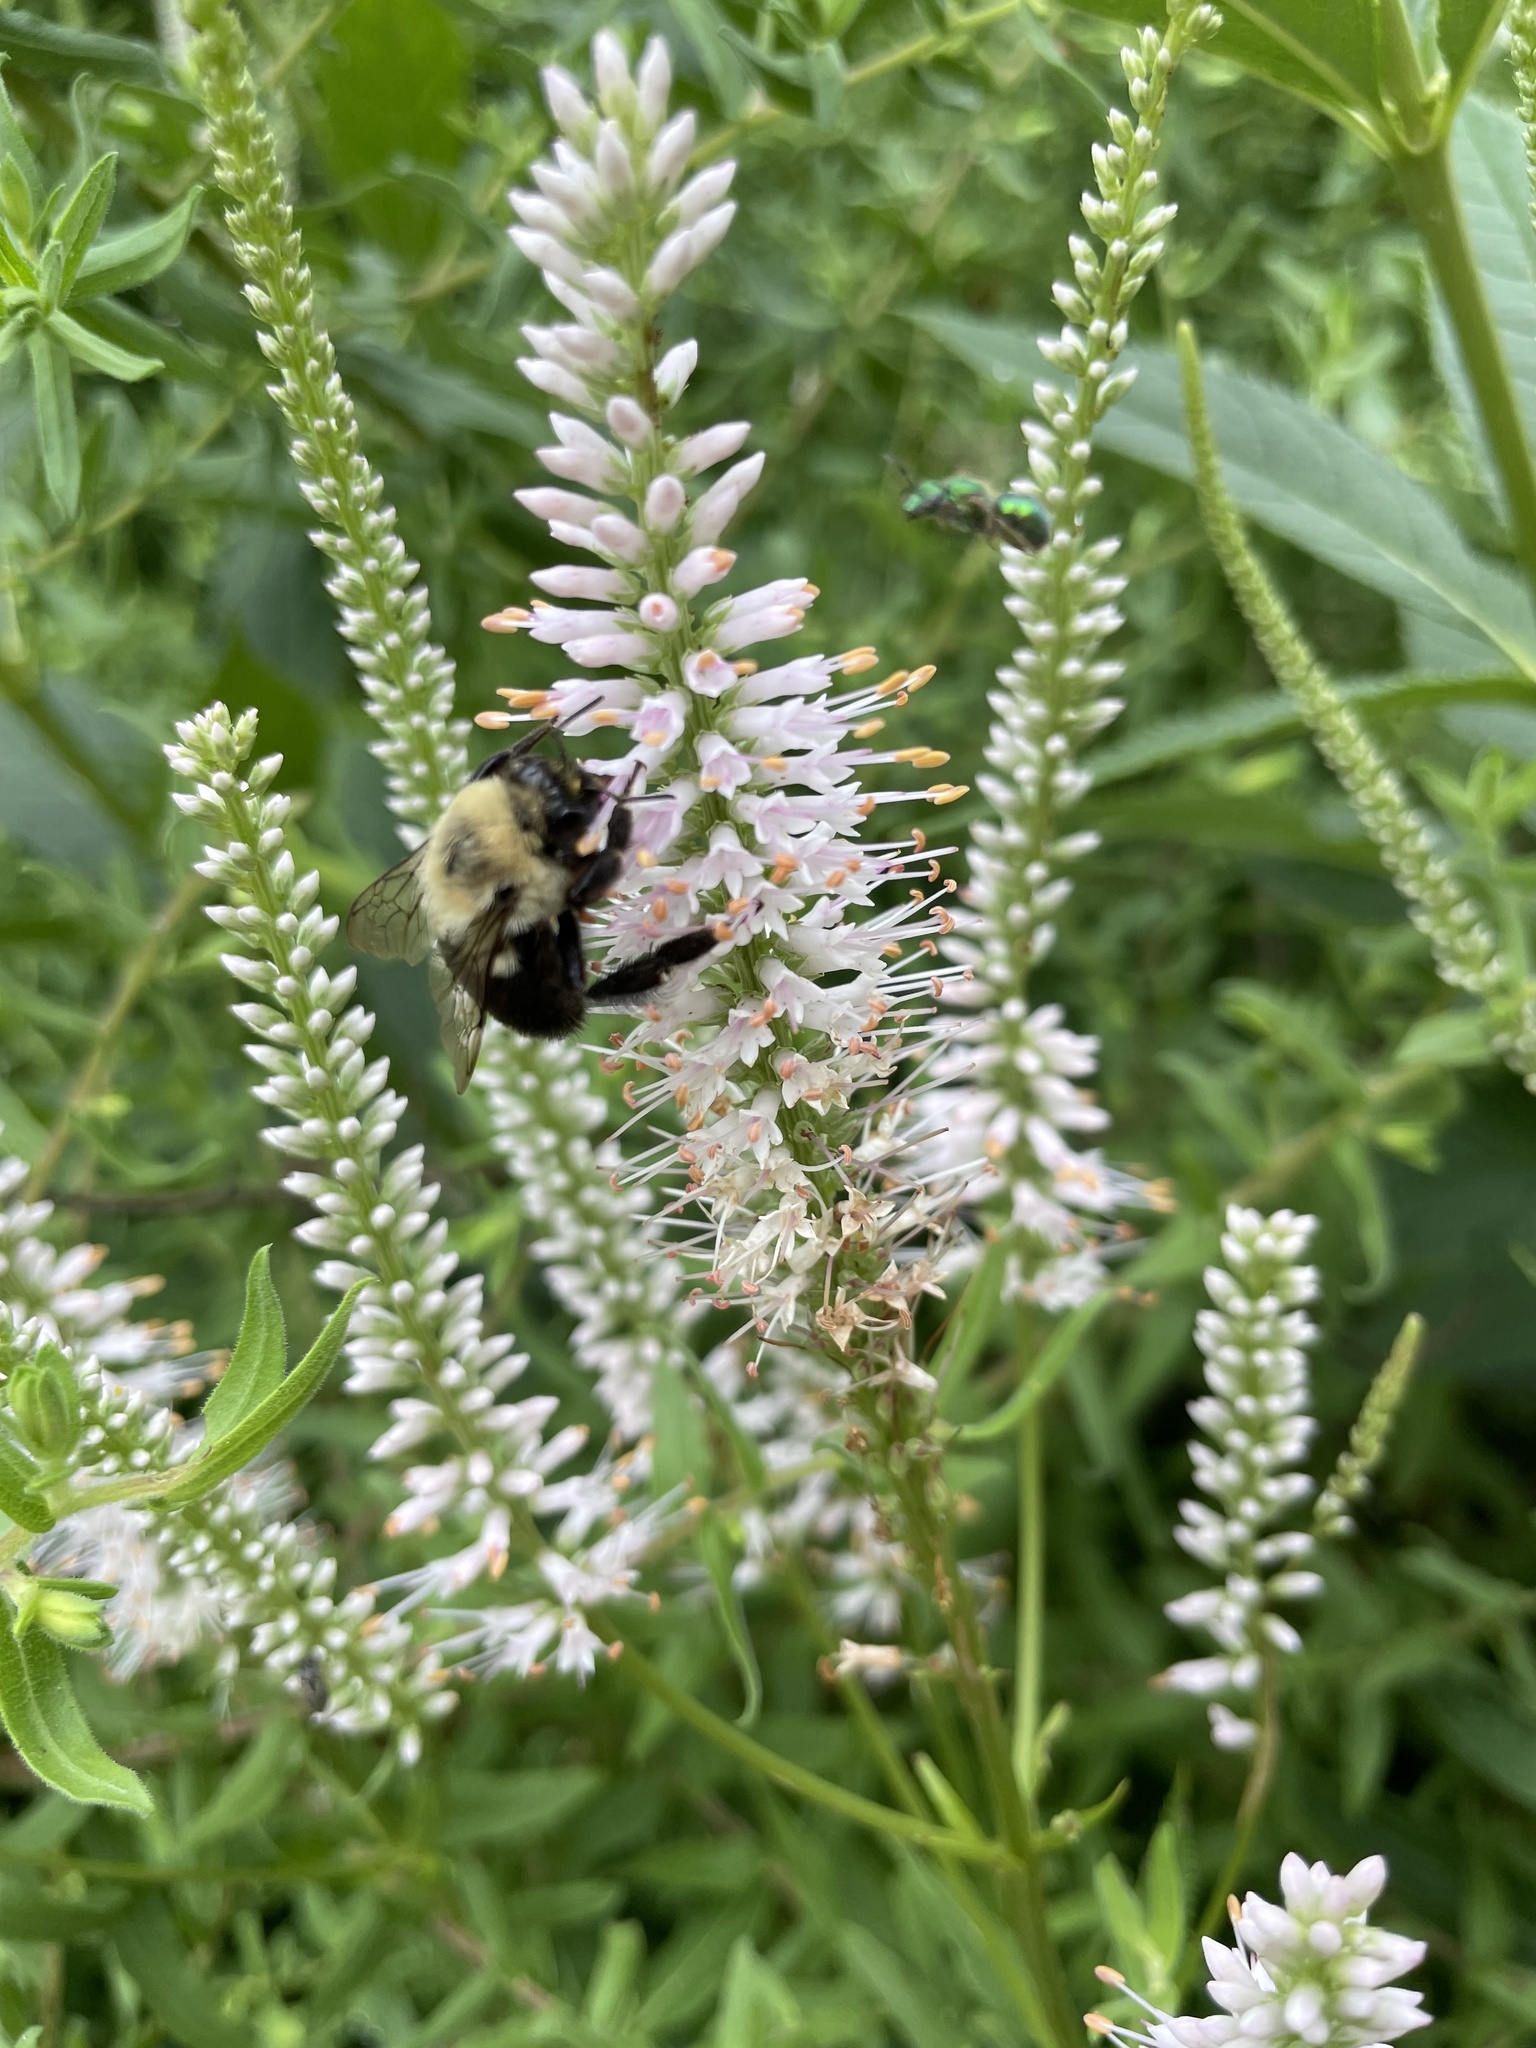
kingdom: Animalia
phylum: Arthropoda
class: Insecta
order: Hymenoptera
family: Apidae
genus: Bombus
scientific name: Bombus impatiens
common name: Common eastern bumble bee
